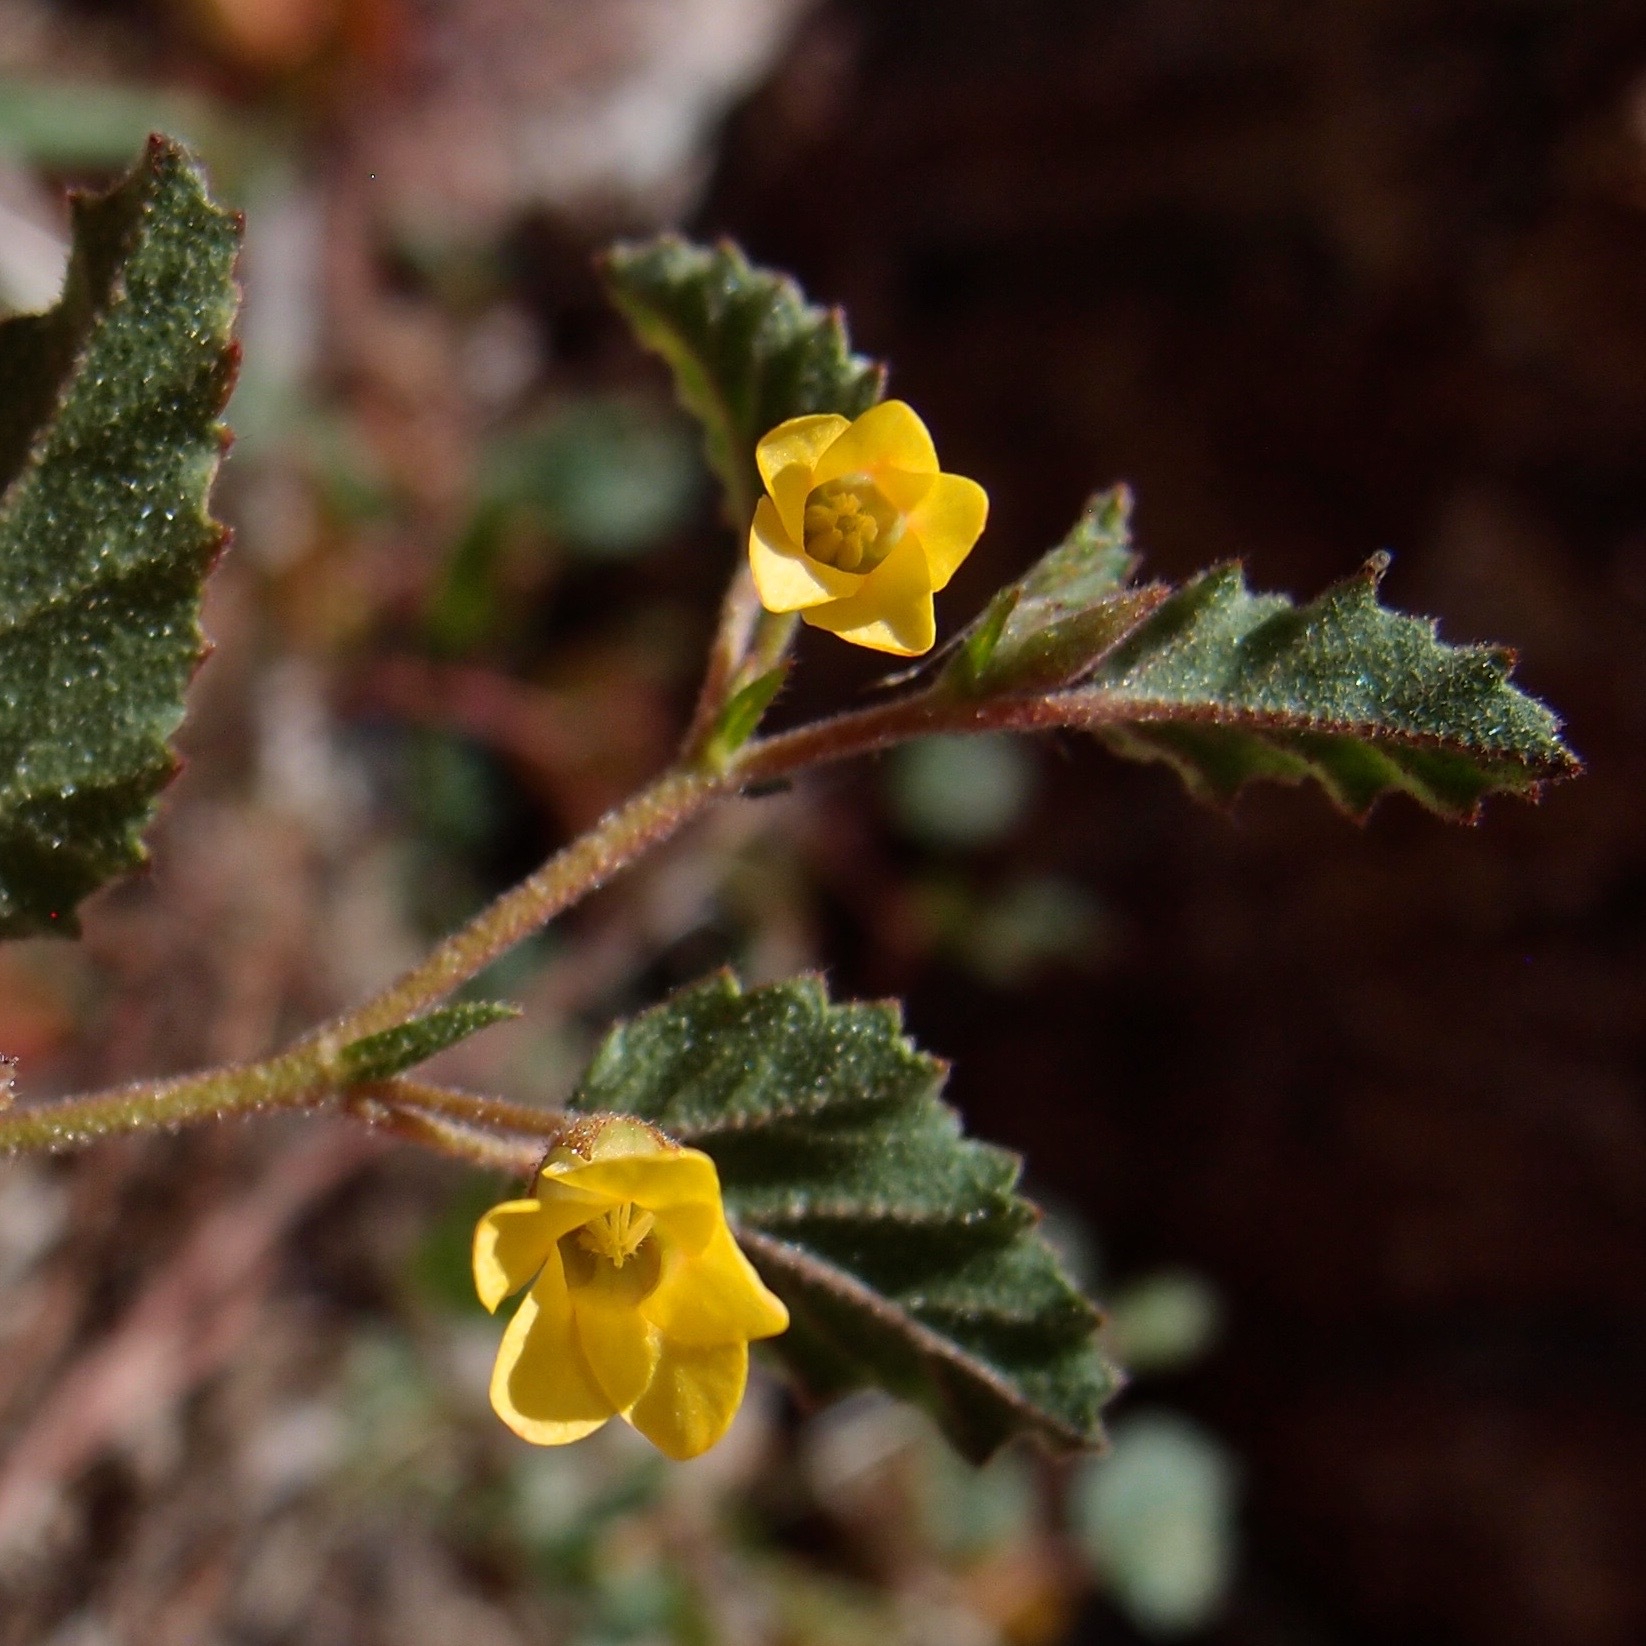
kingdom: Plantae
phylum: Tracheophyta
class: Magnoliopsida
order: Malvales
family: Malvaceae
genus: Hermannia
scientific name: Hermannia pauciflora
